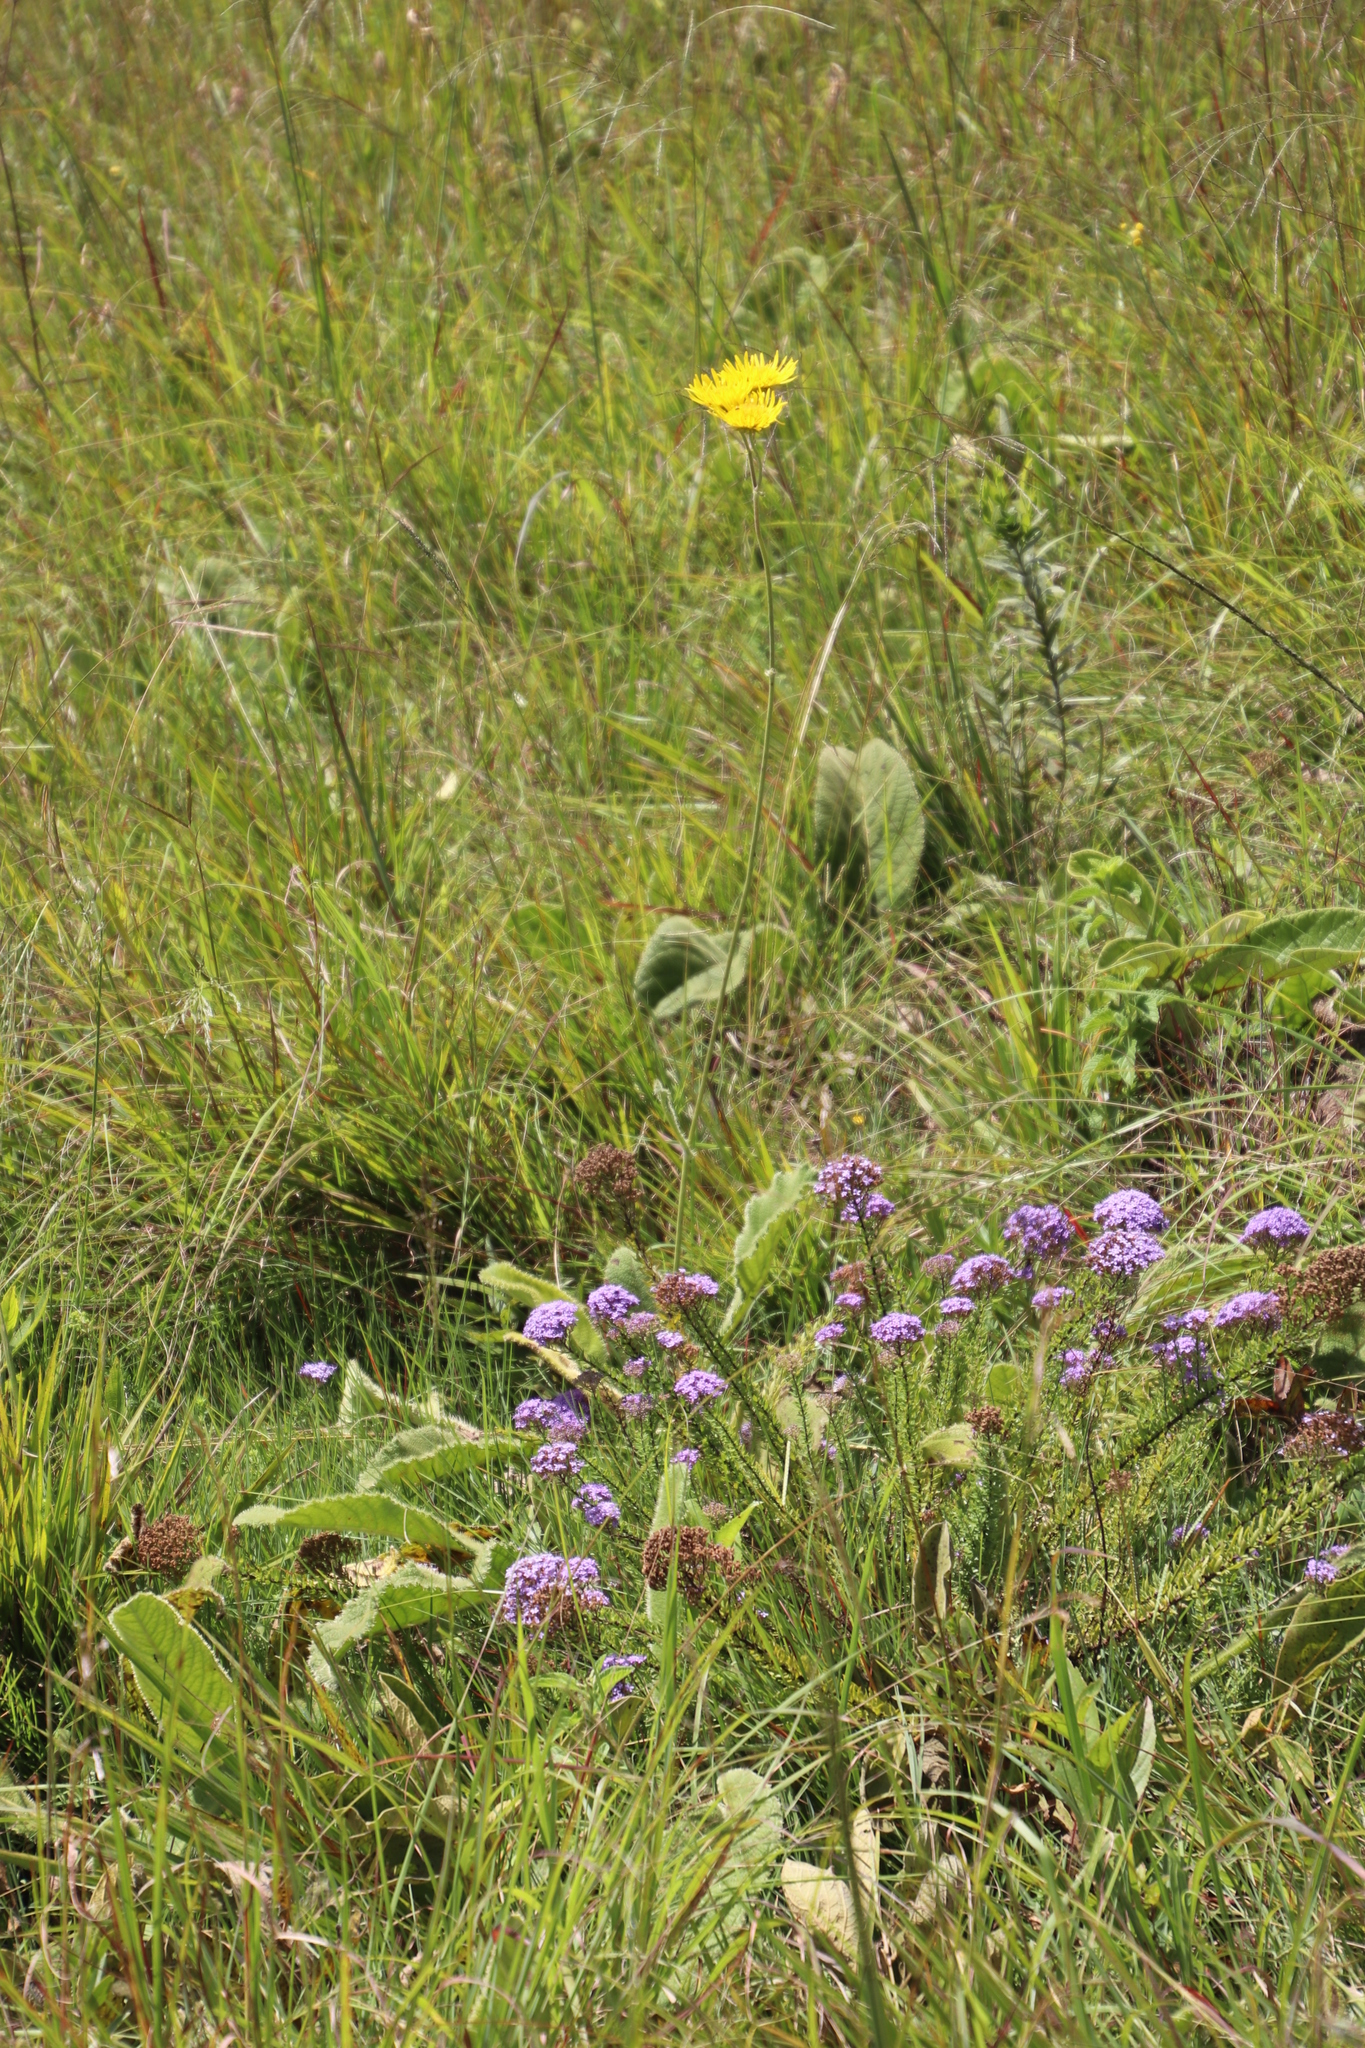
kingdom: Plantae
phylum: Tracheophyta
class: Magnoliopsida
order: Asterales
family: Asteraceae
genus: Berkheya
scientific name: Berkheya setifera
